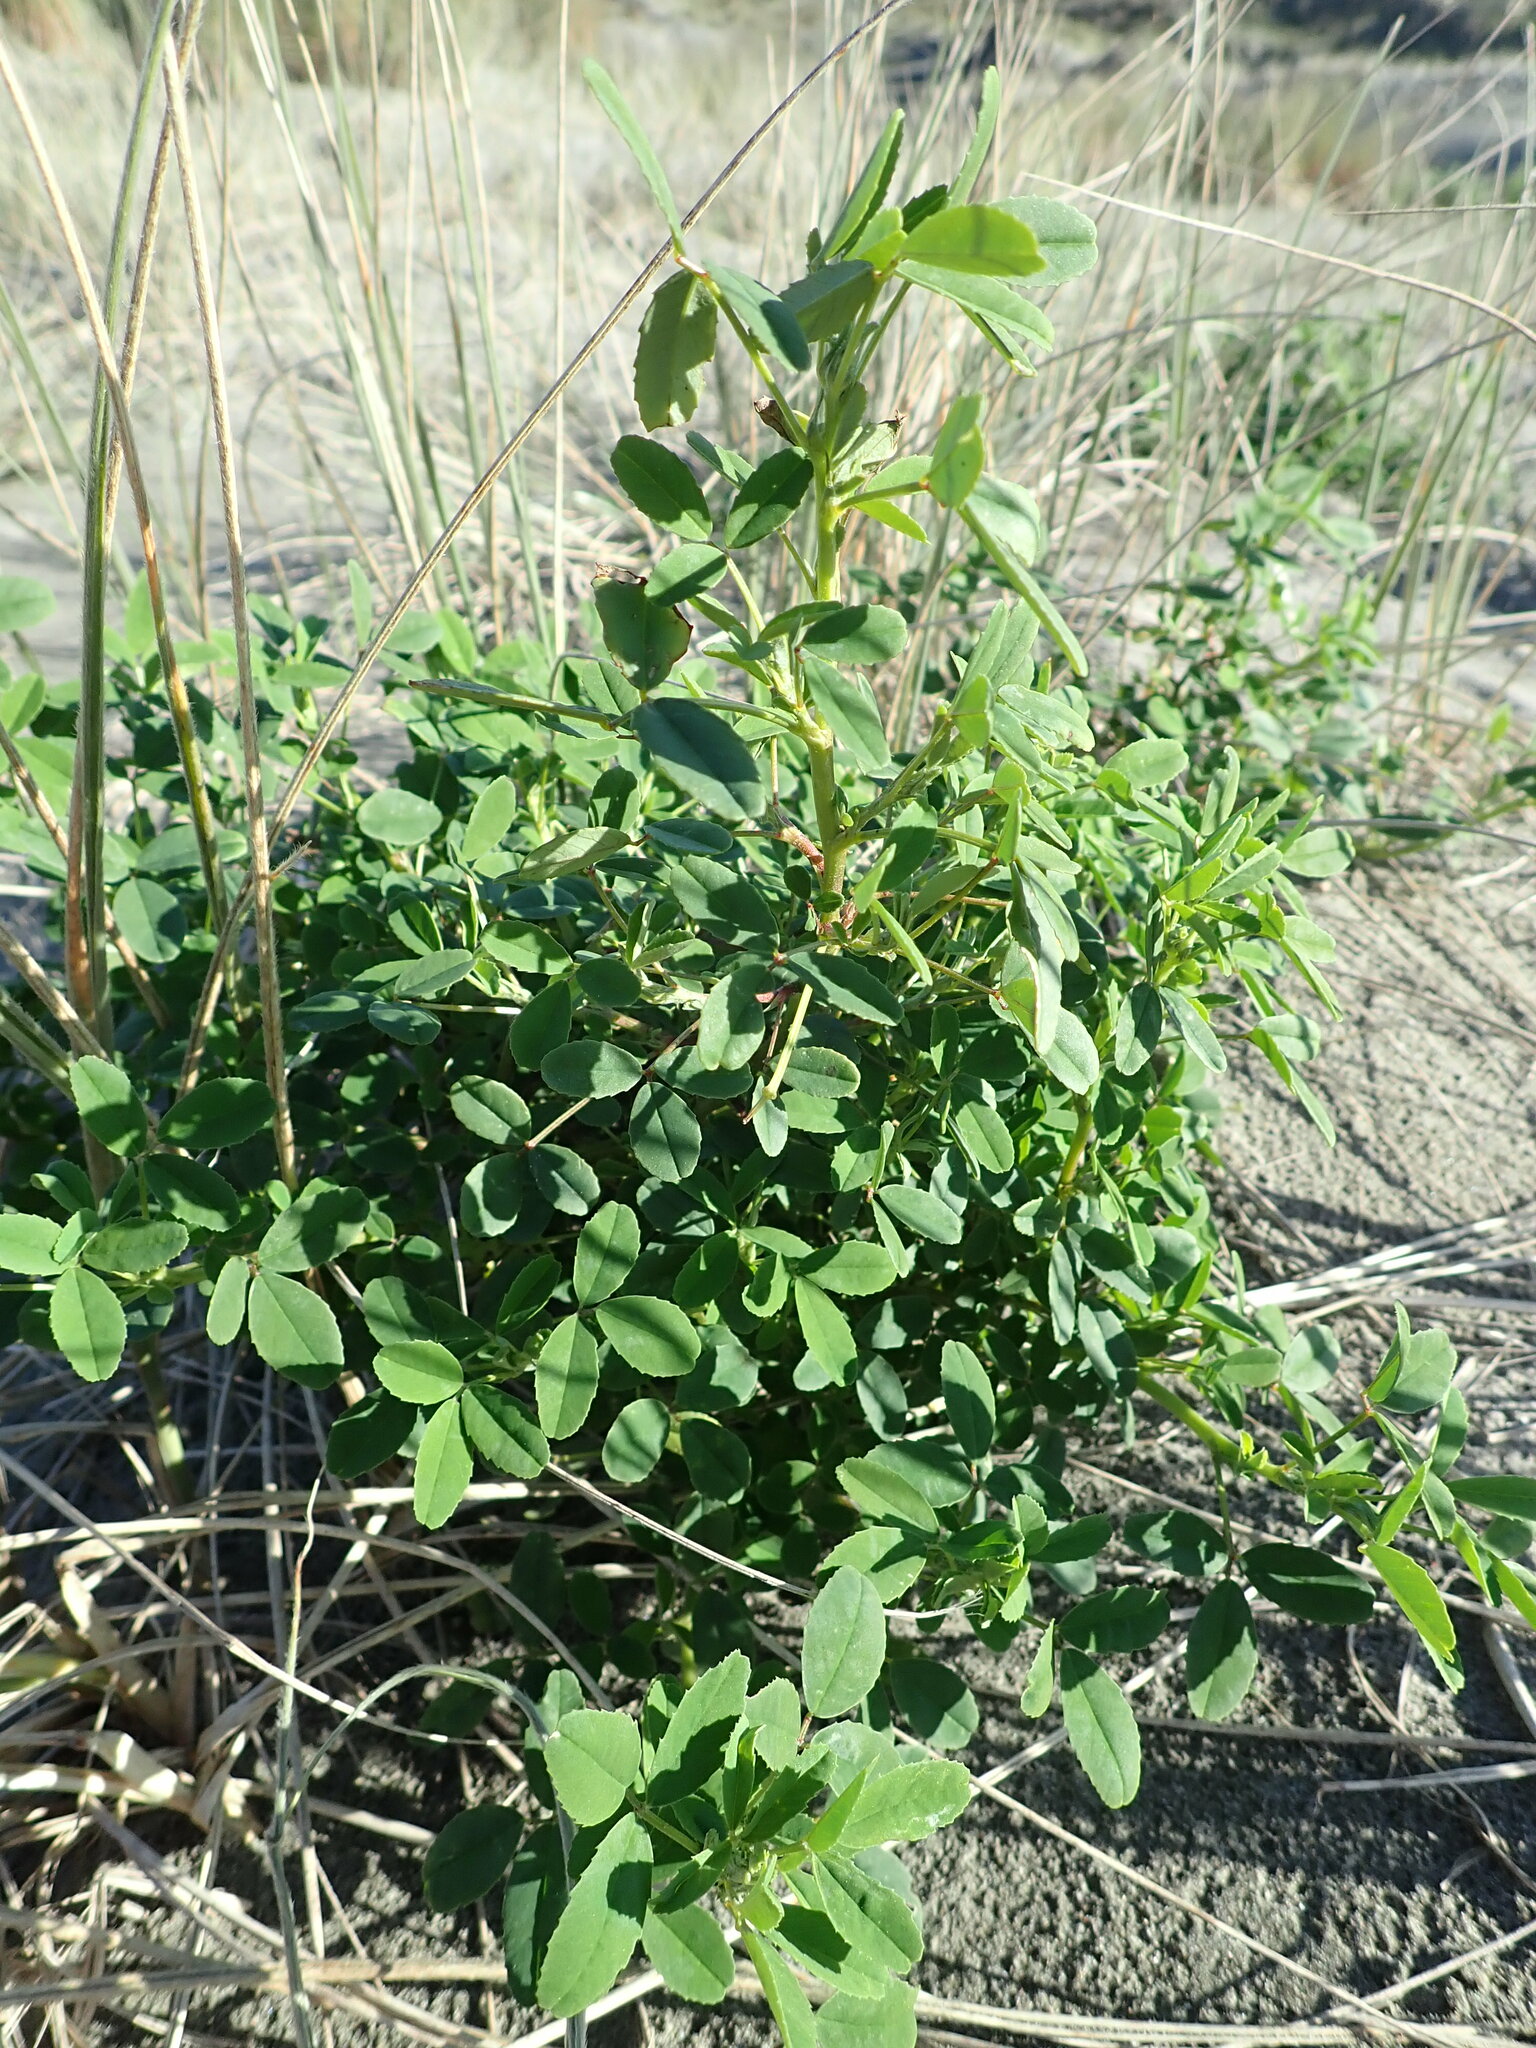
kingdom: Plantae
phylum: Tracheophyta
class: Magnoliopsida
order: Fabales
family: Fabaceae
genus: Melilotus
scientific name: Melilotus indicus
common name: Small melilot
